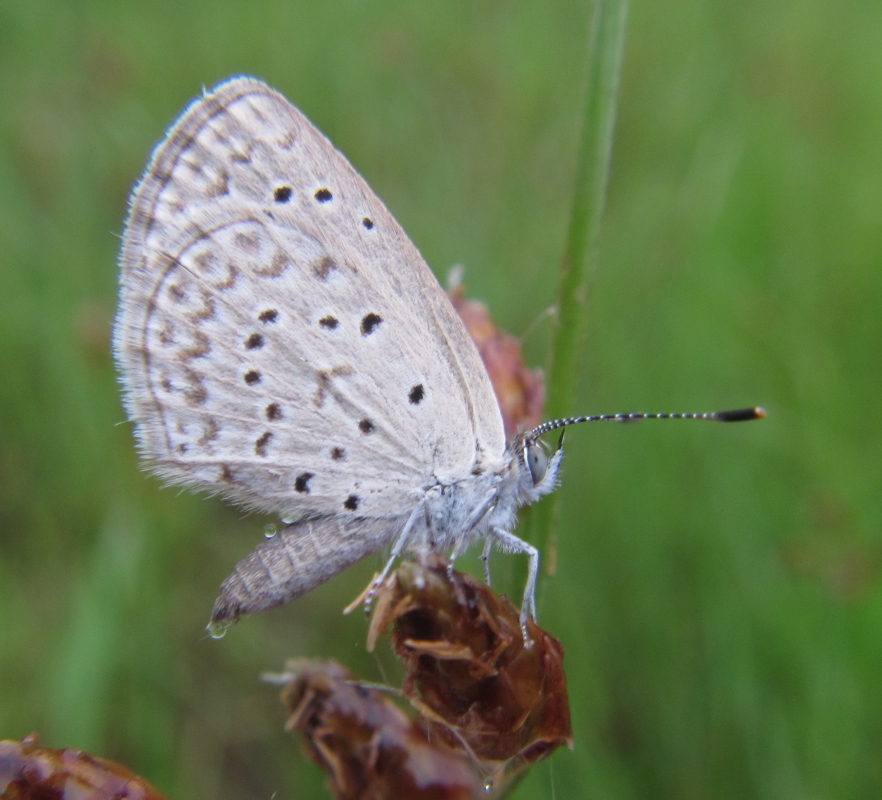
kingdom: Animalia
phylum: Arthropoda
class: Insecta
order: Lepidoptera
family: Lycaenidae
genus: Zizeeria
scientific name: Zizeeria knysna
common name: African grass blue
